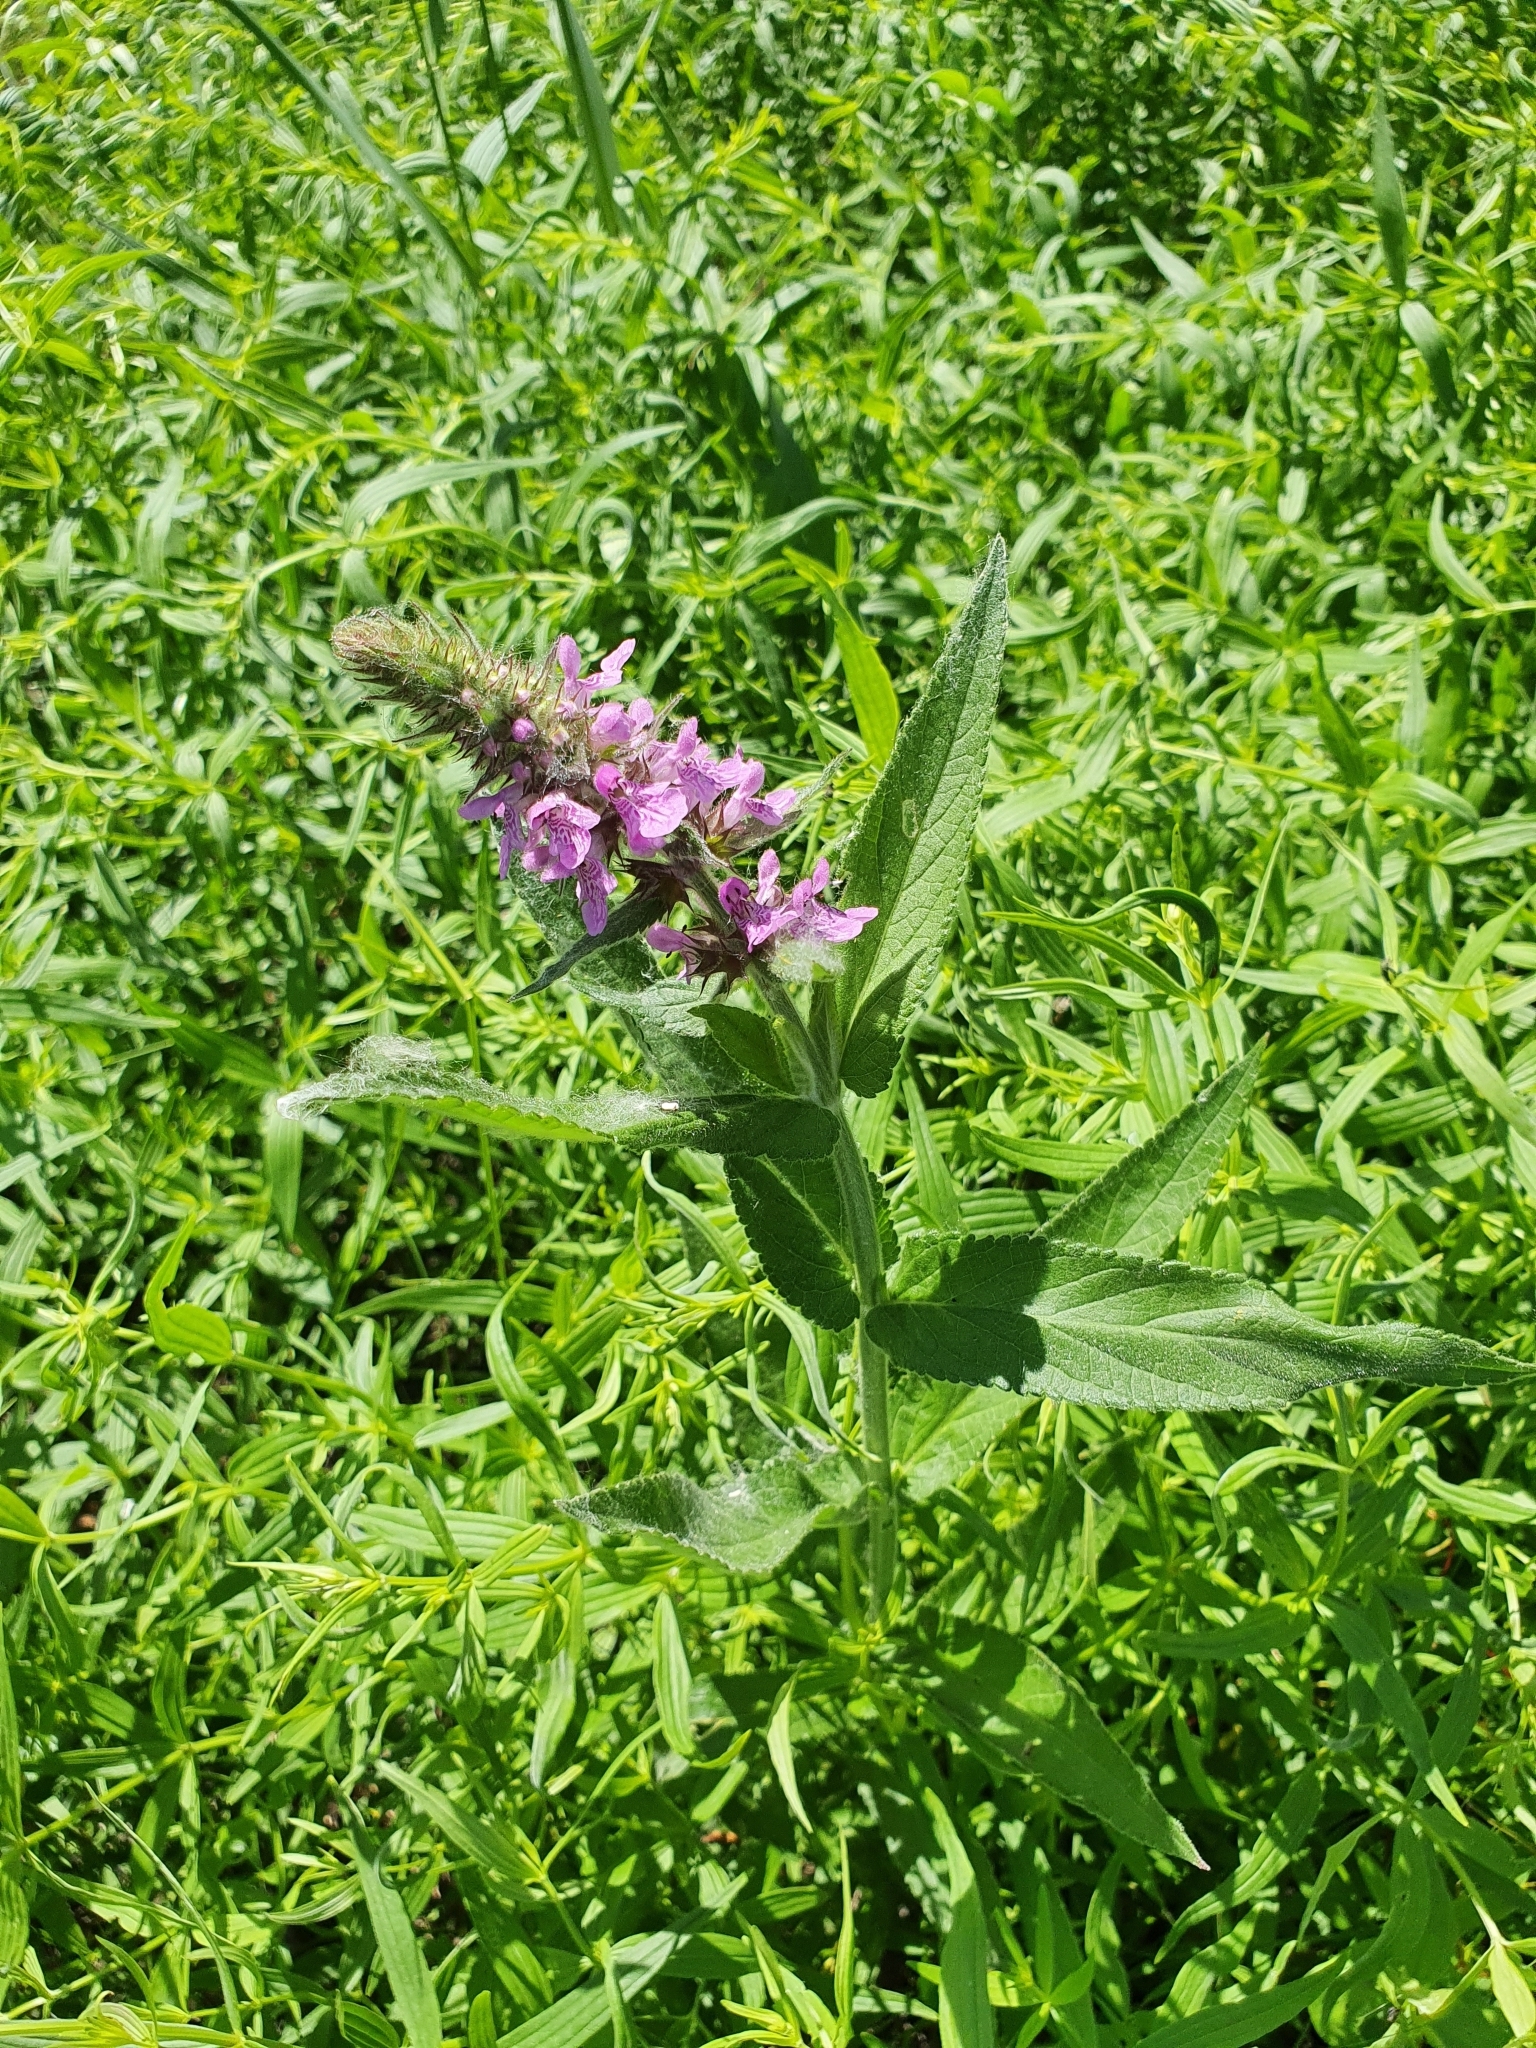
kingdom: Plantae
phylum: Tracheophyta
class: Magnoliopsida
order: Lamiales
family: Lamiaceae
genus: Stachys
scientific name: Stachys palustris
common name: Marsh woundwort
